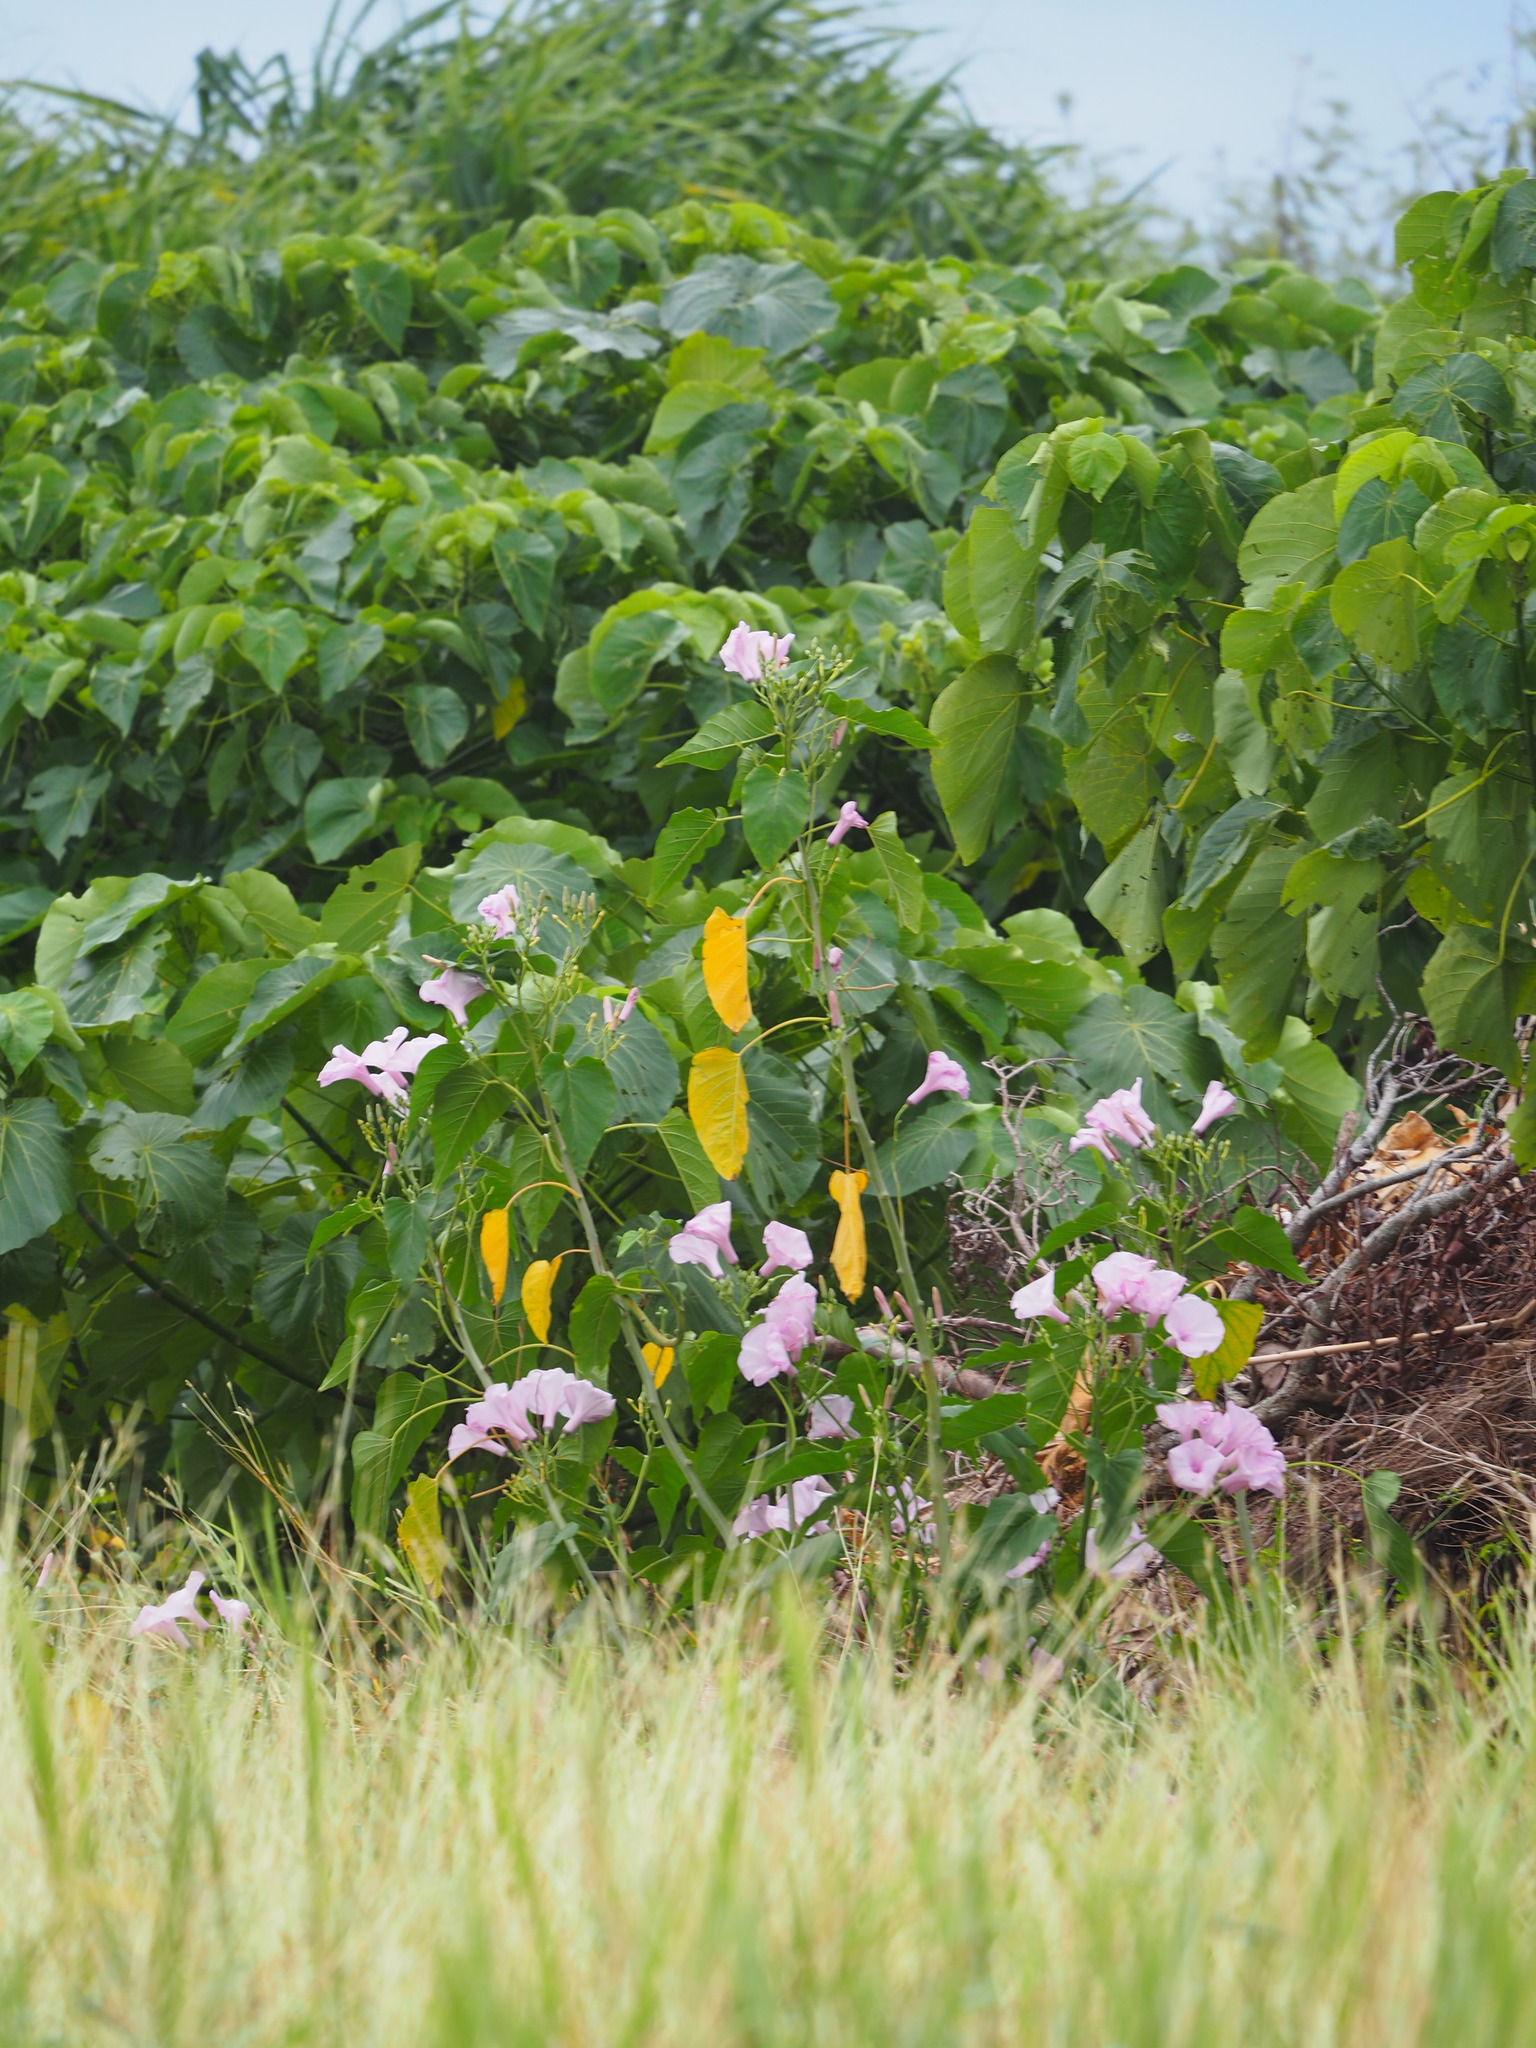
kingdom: Plantae
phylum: Tracheophyta
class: Magnoliopsida
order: Solanales
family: Convolvulaceae
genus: Ipomoea
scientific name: Ipomoea carnea
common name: Morning-glory
